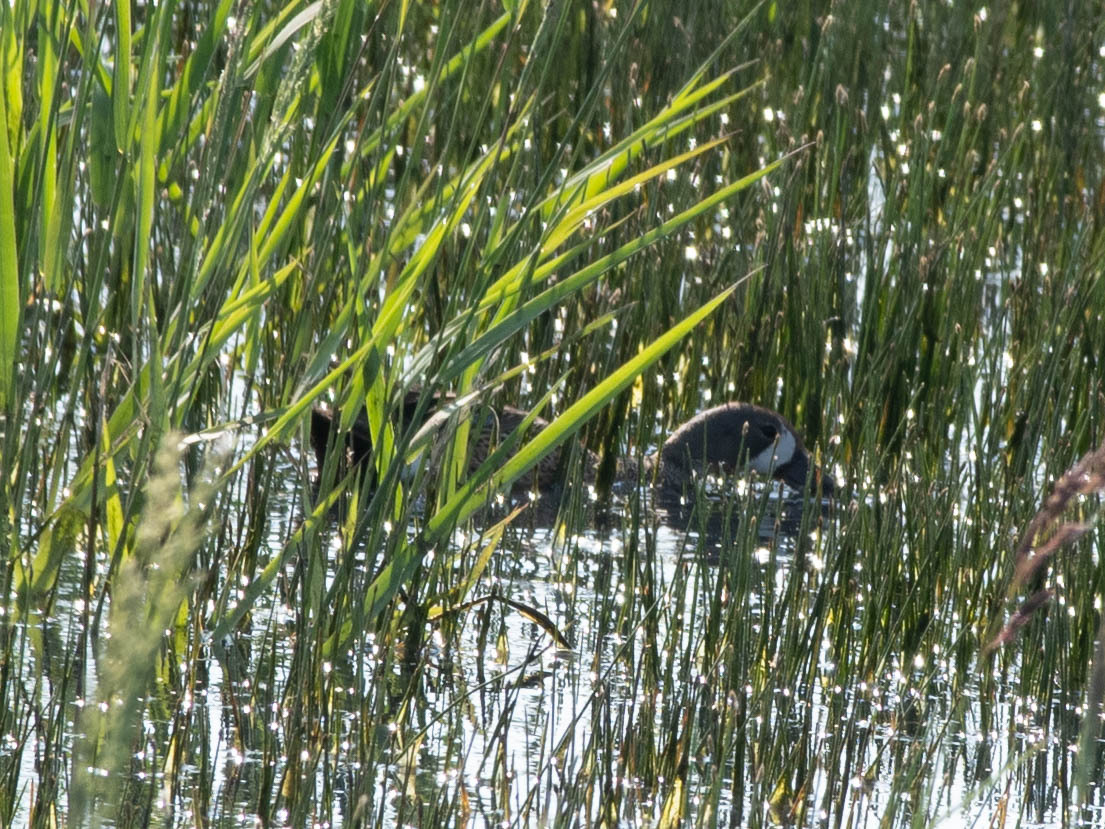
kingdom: Animalia
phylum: Chordata
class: Aves
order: Anseriformes
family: Anatidae
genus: Spatula
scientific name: Spatula discors
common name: Blue-winged teal
